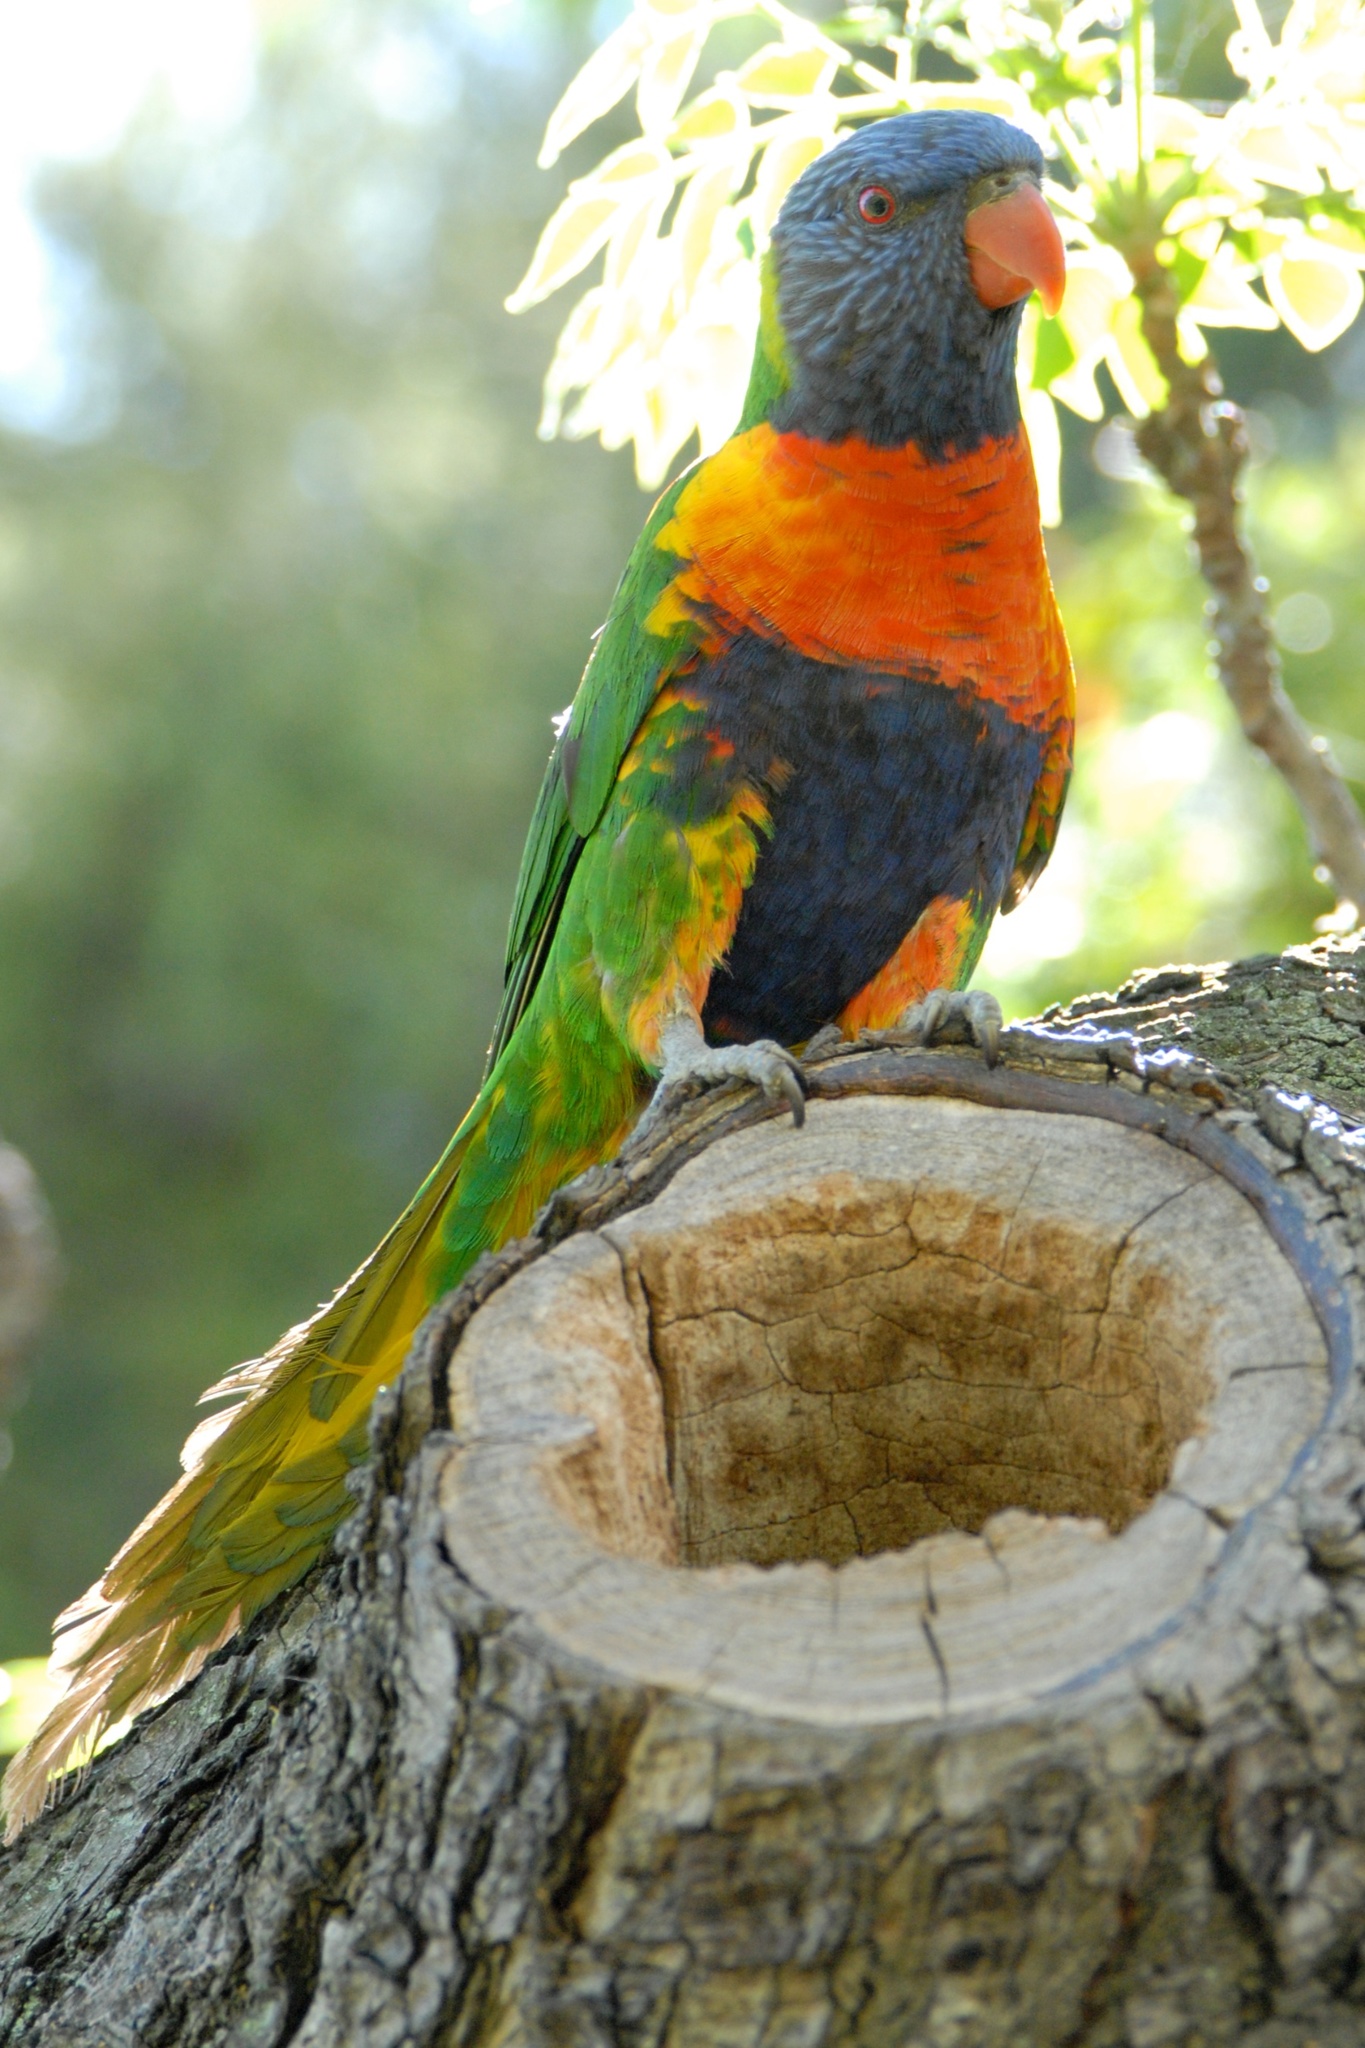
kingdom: Animalia
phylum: Chordata
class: Aves
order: Psittaciformes
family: Psittacidae
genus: Trichoglossus
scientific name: Trichoglossus haematodus
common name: Coconut lorikeet
